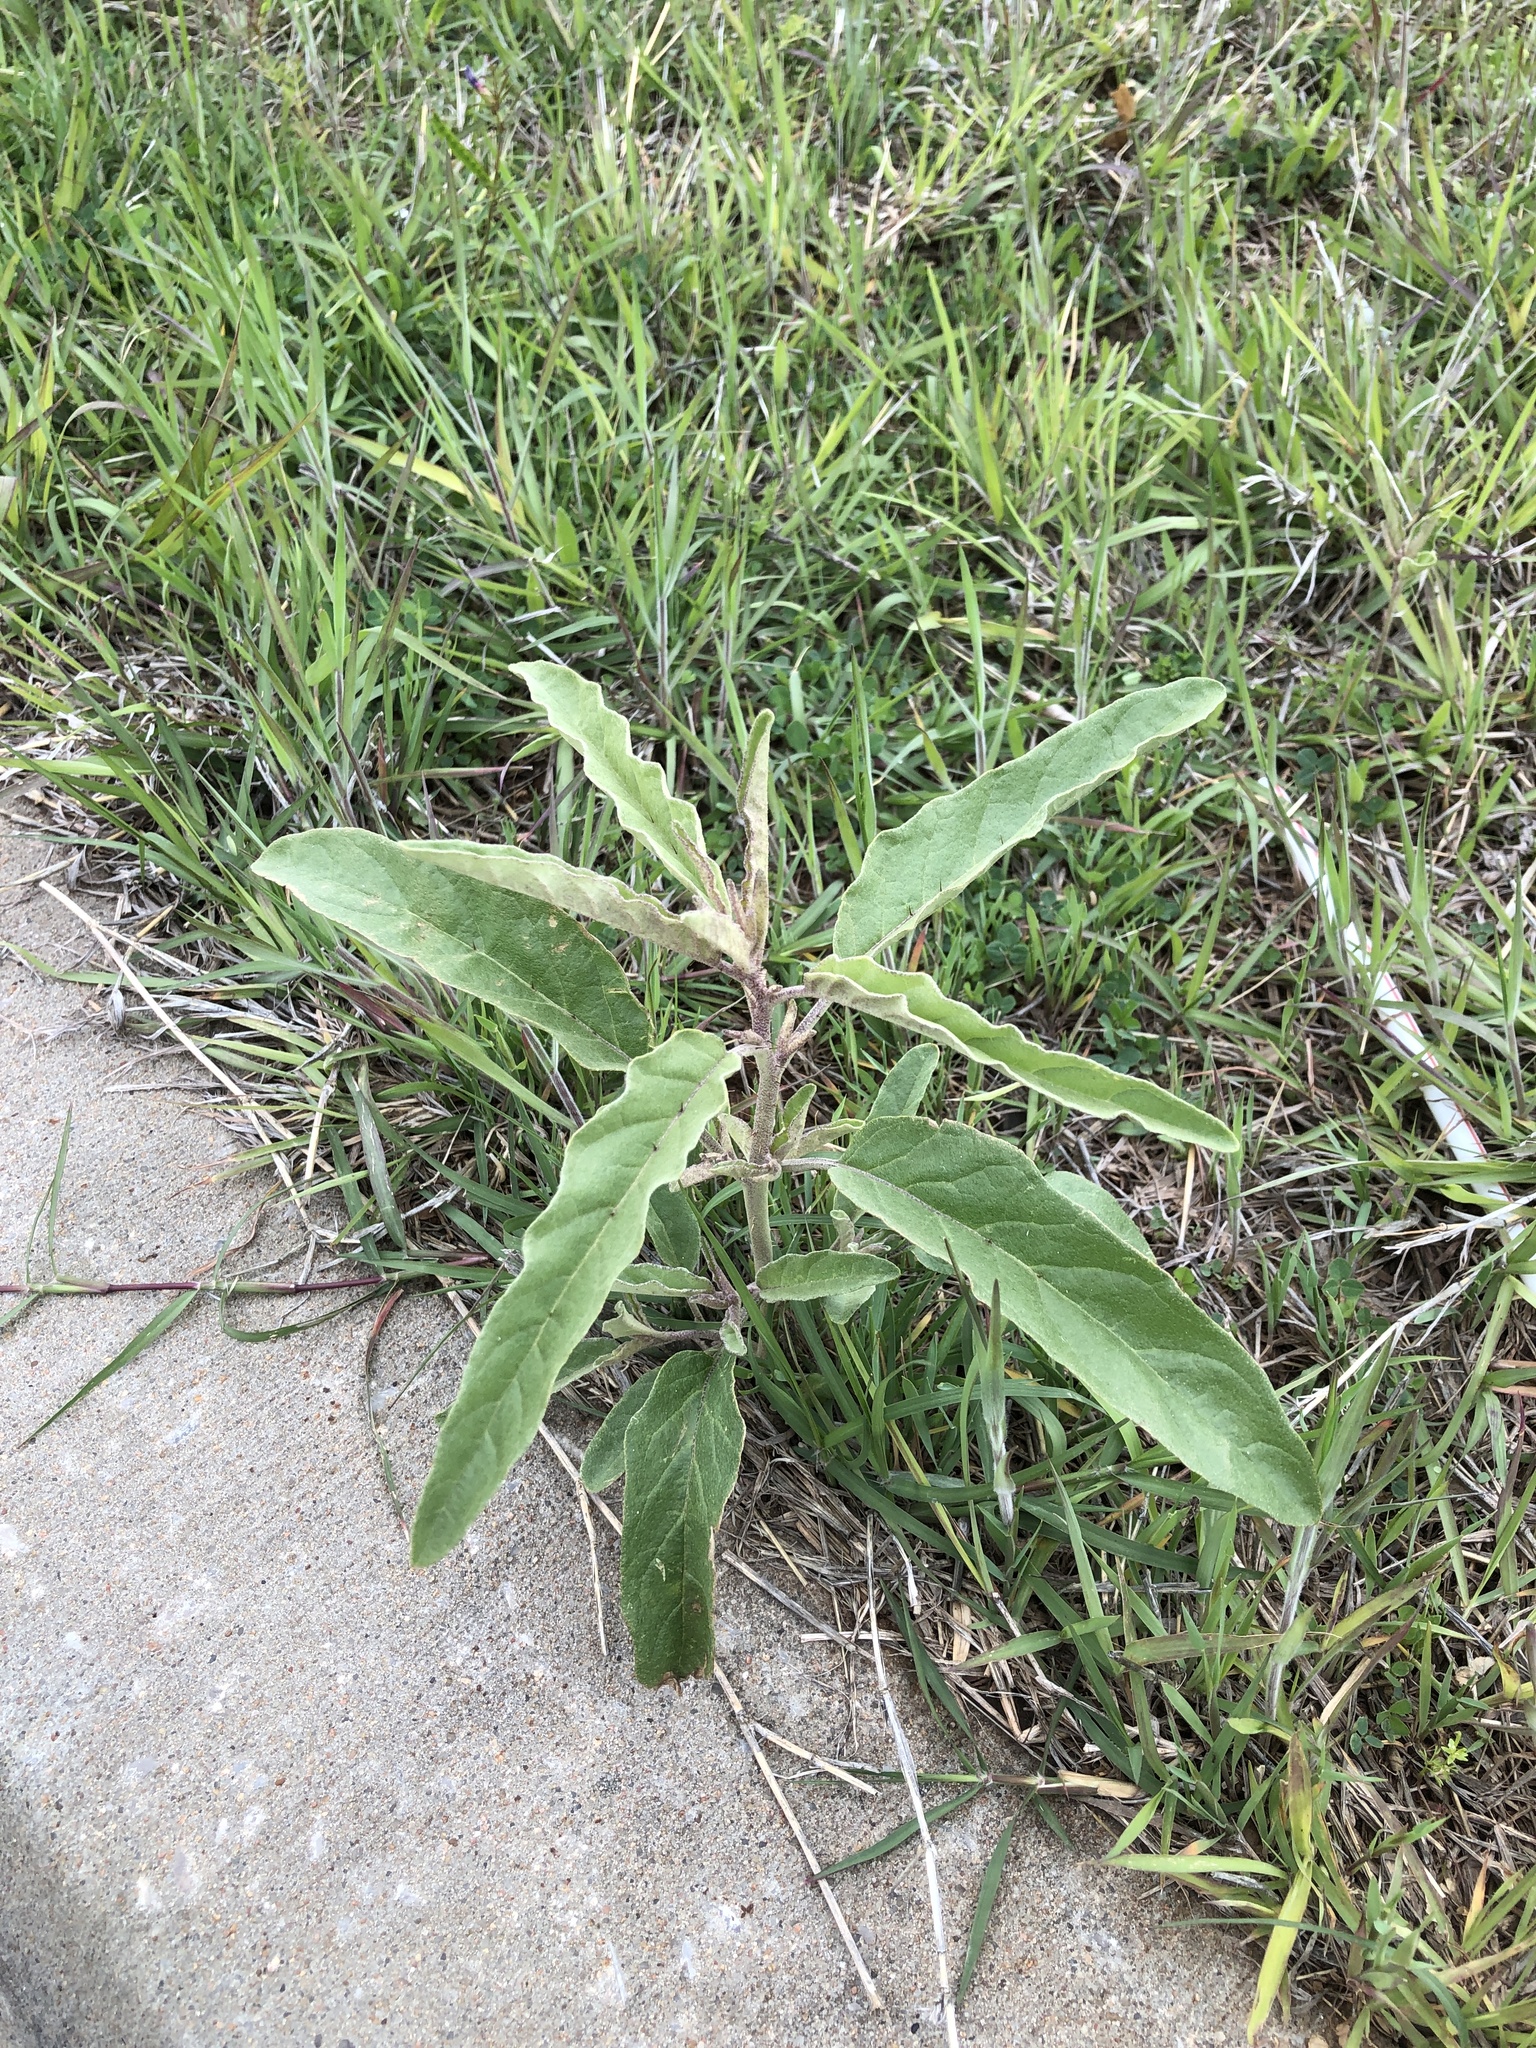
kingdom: Plantae
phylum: Tracheophyta
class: Magnoliopsida
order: Solanales
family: Solanaceae
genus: Solanum
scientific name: Solanum elaeagnifolium
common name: Silverleaf nightshade
